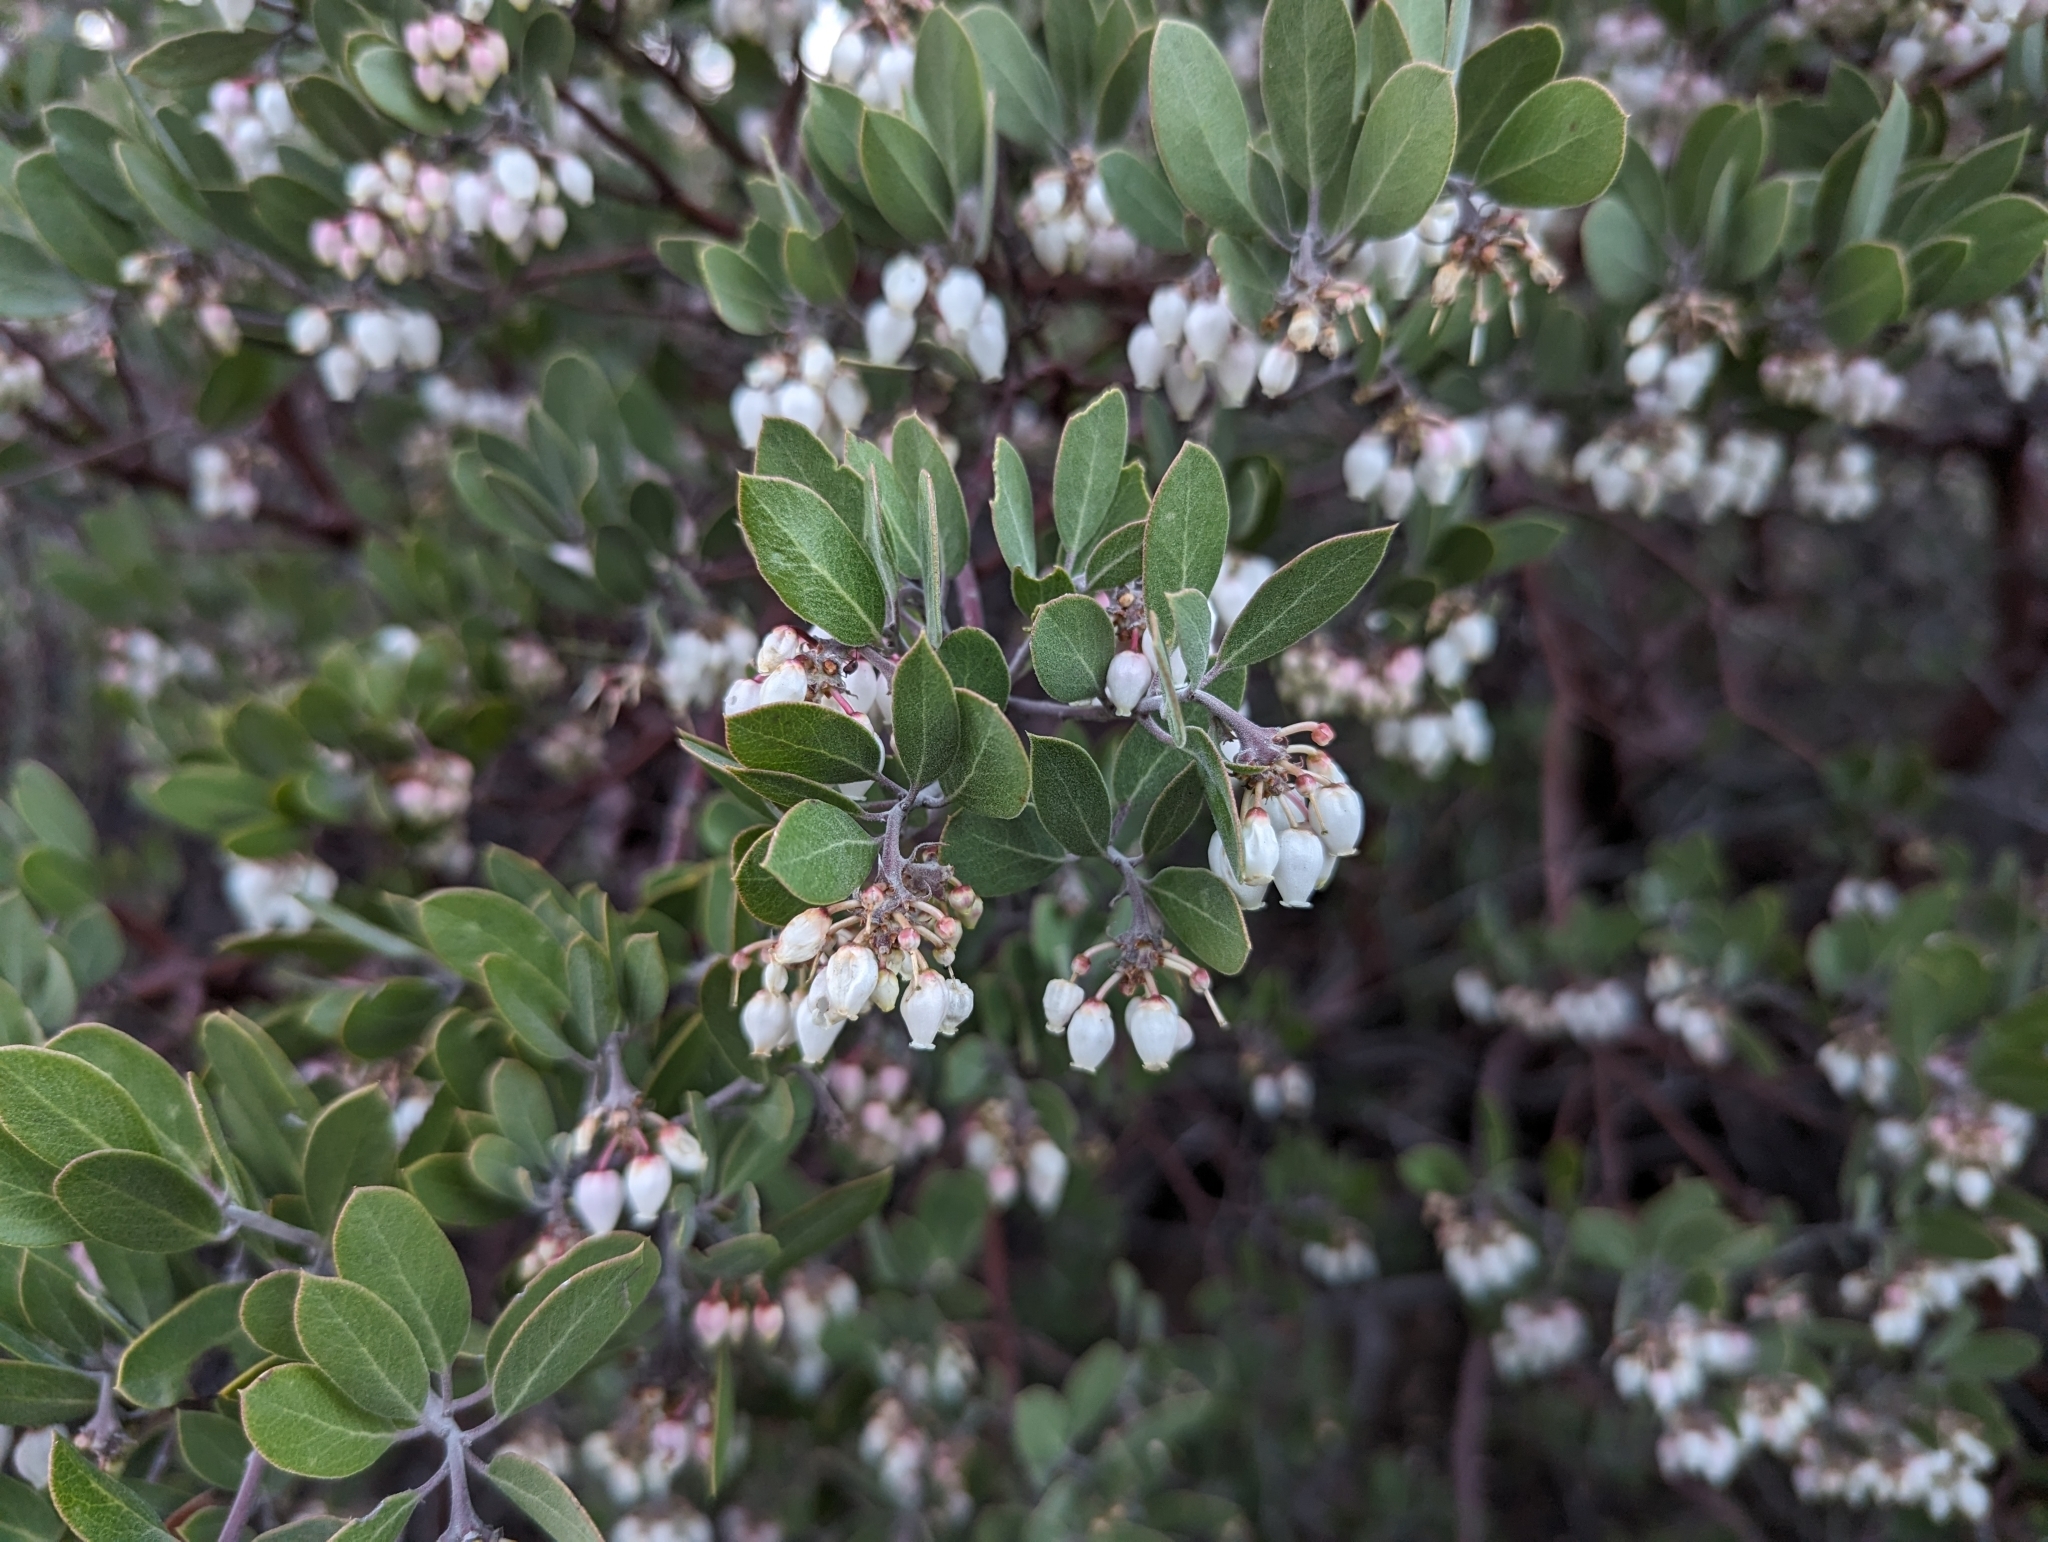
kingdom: Plantae
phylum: Tracheophyta
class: Magnoliopsida
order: Ericales
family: Ericaceae
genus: Arctostaphylos
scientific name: Arctostaphylos pungens
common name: Mexican manzanita
